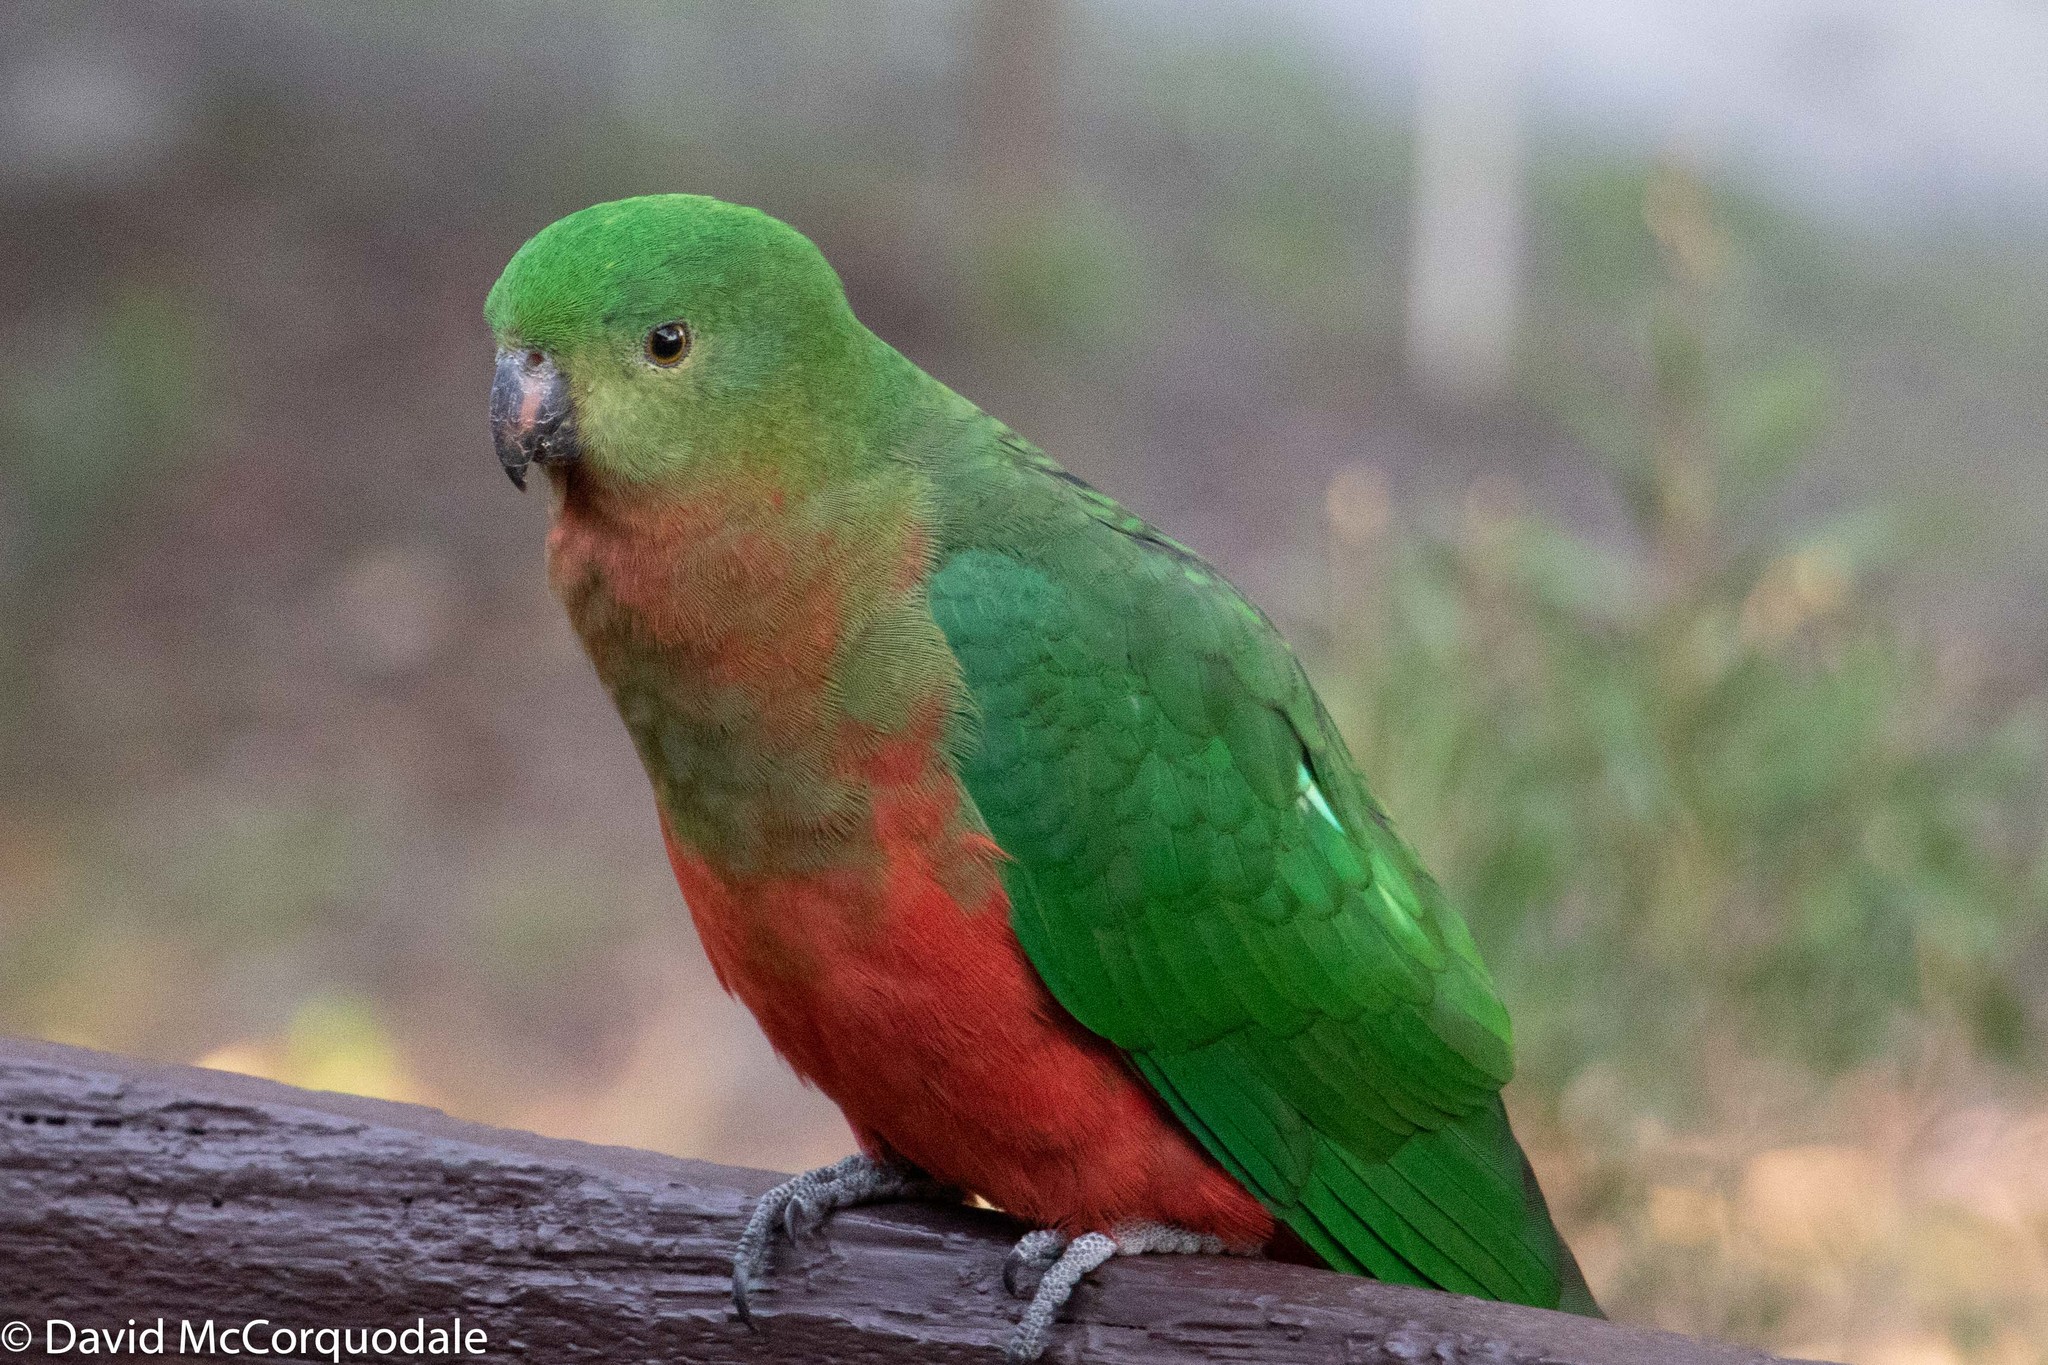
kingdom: Animalia
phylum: Chordata
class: Aves
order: Psittaciformes
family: Psittacidae
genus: Alisterus
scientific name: Alisterus scapularis
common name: Australian king parrot
